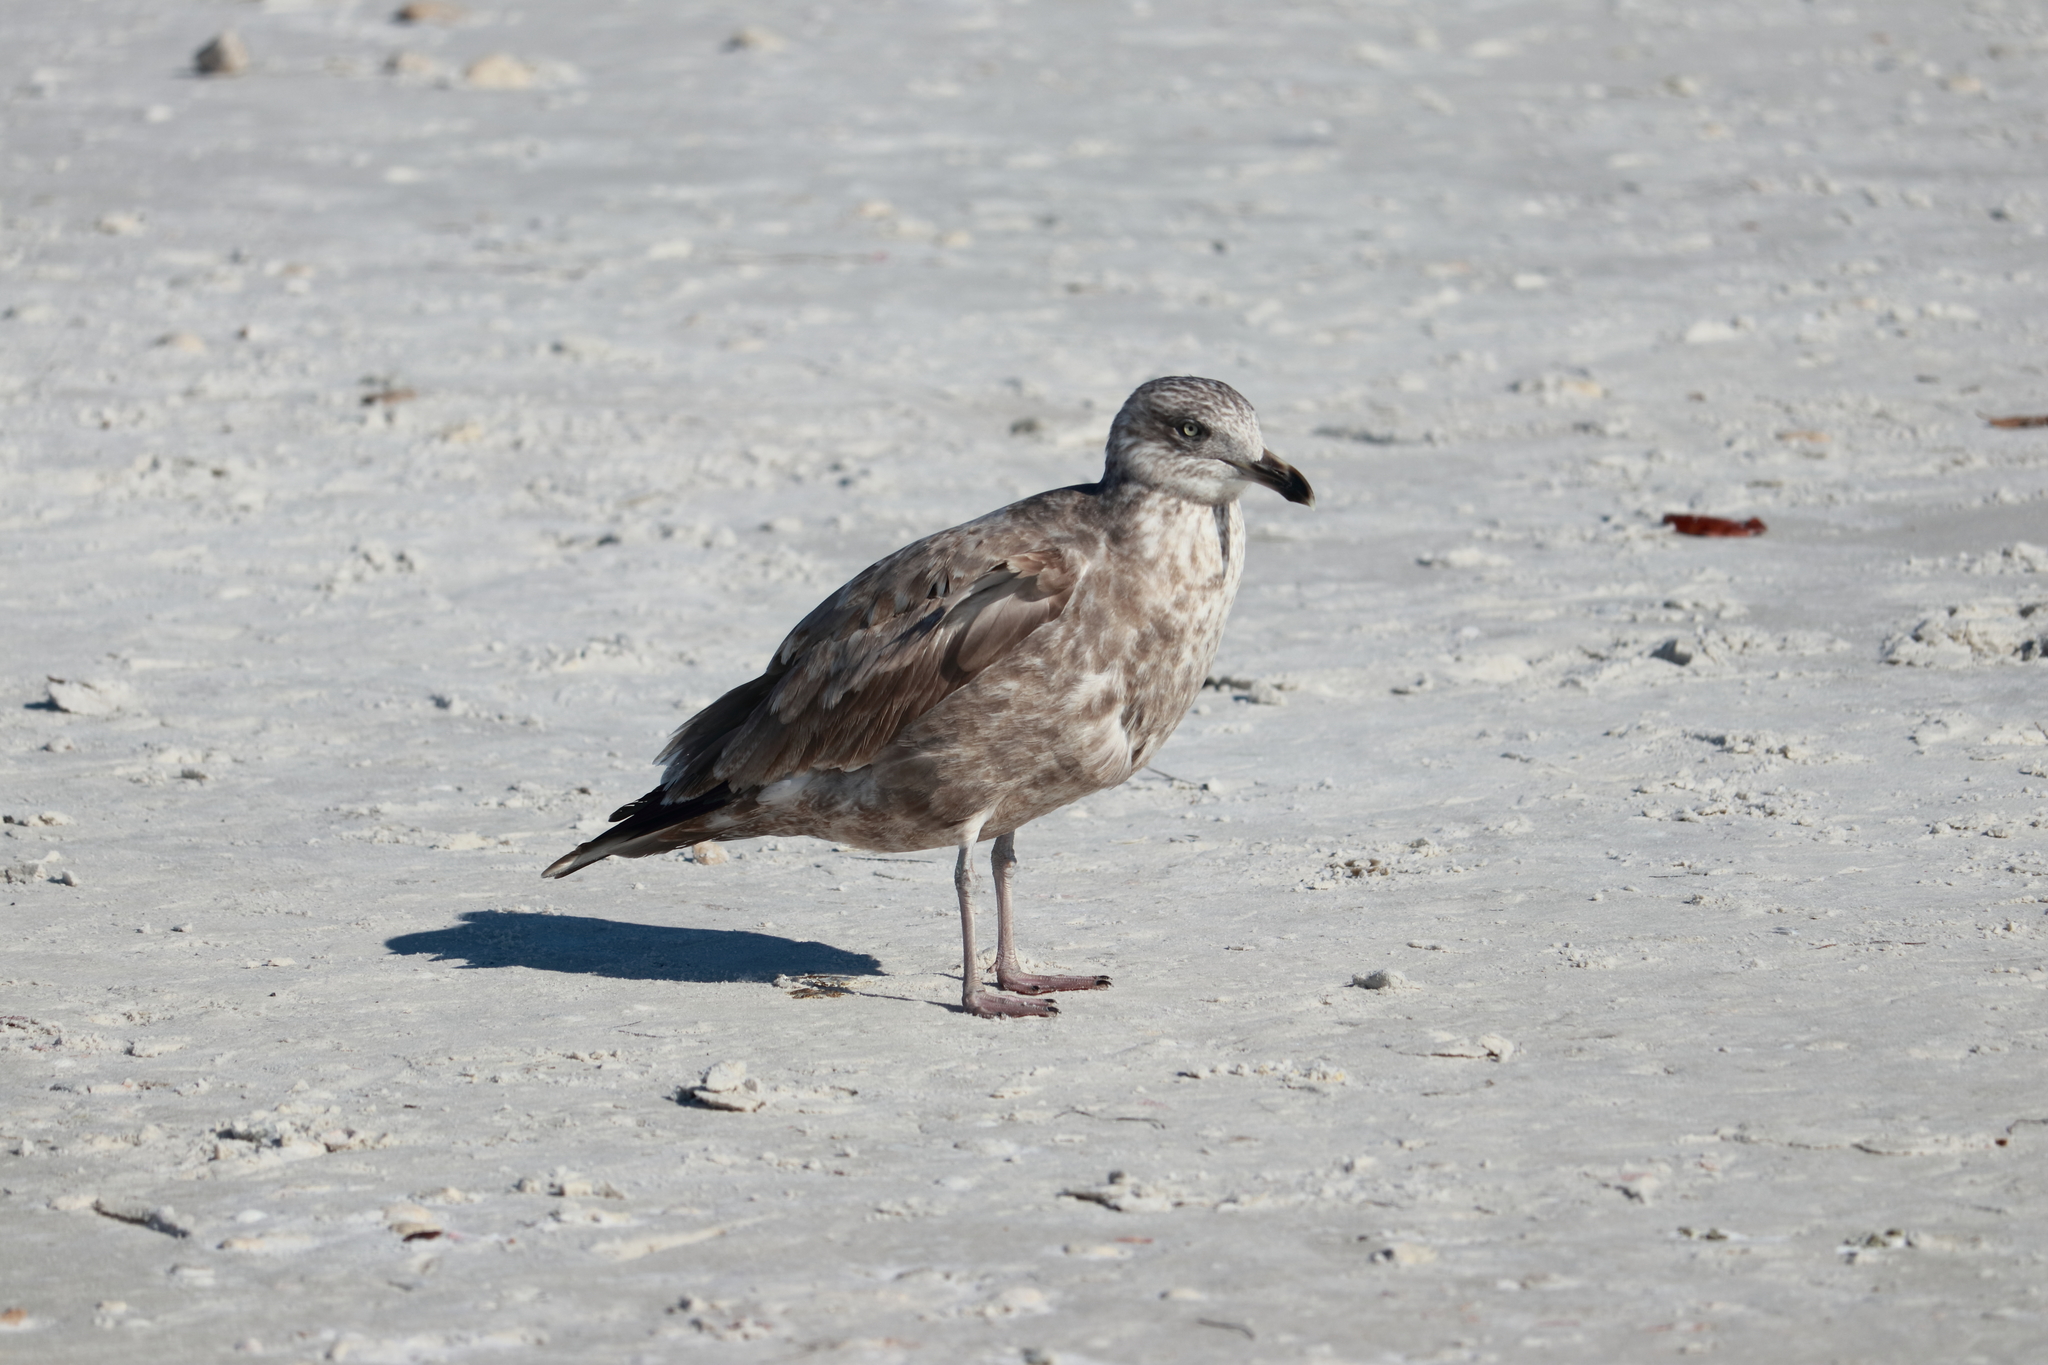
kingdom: Animalia
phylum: Chordata
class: Aves
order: Charadriiformes
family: Laridae
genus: Larus
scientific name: Larus argentatus
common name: Herring gull
